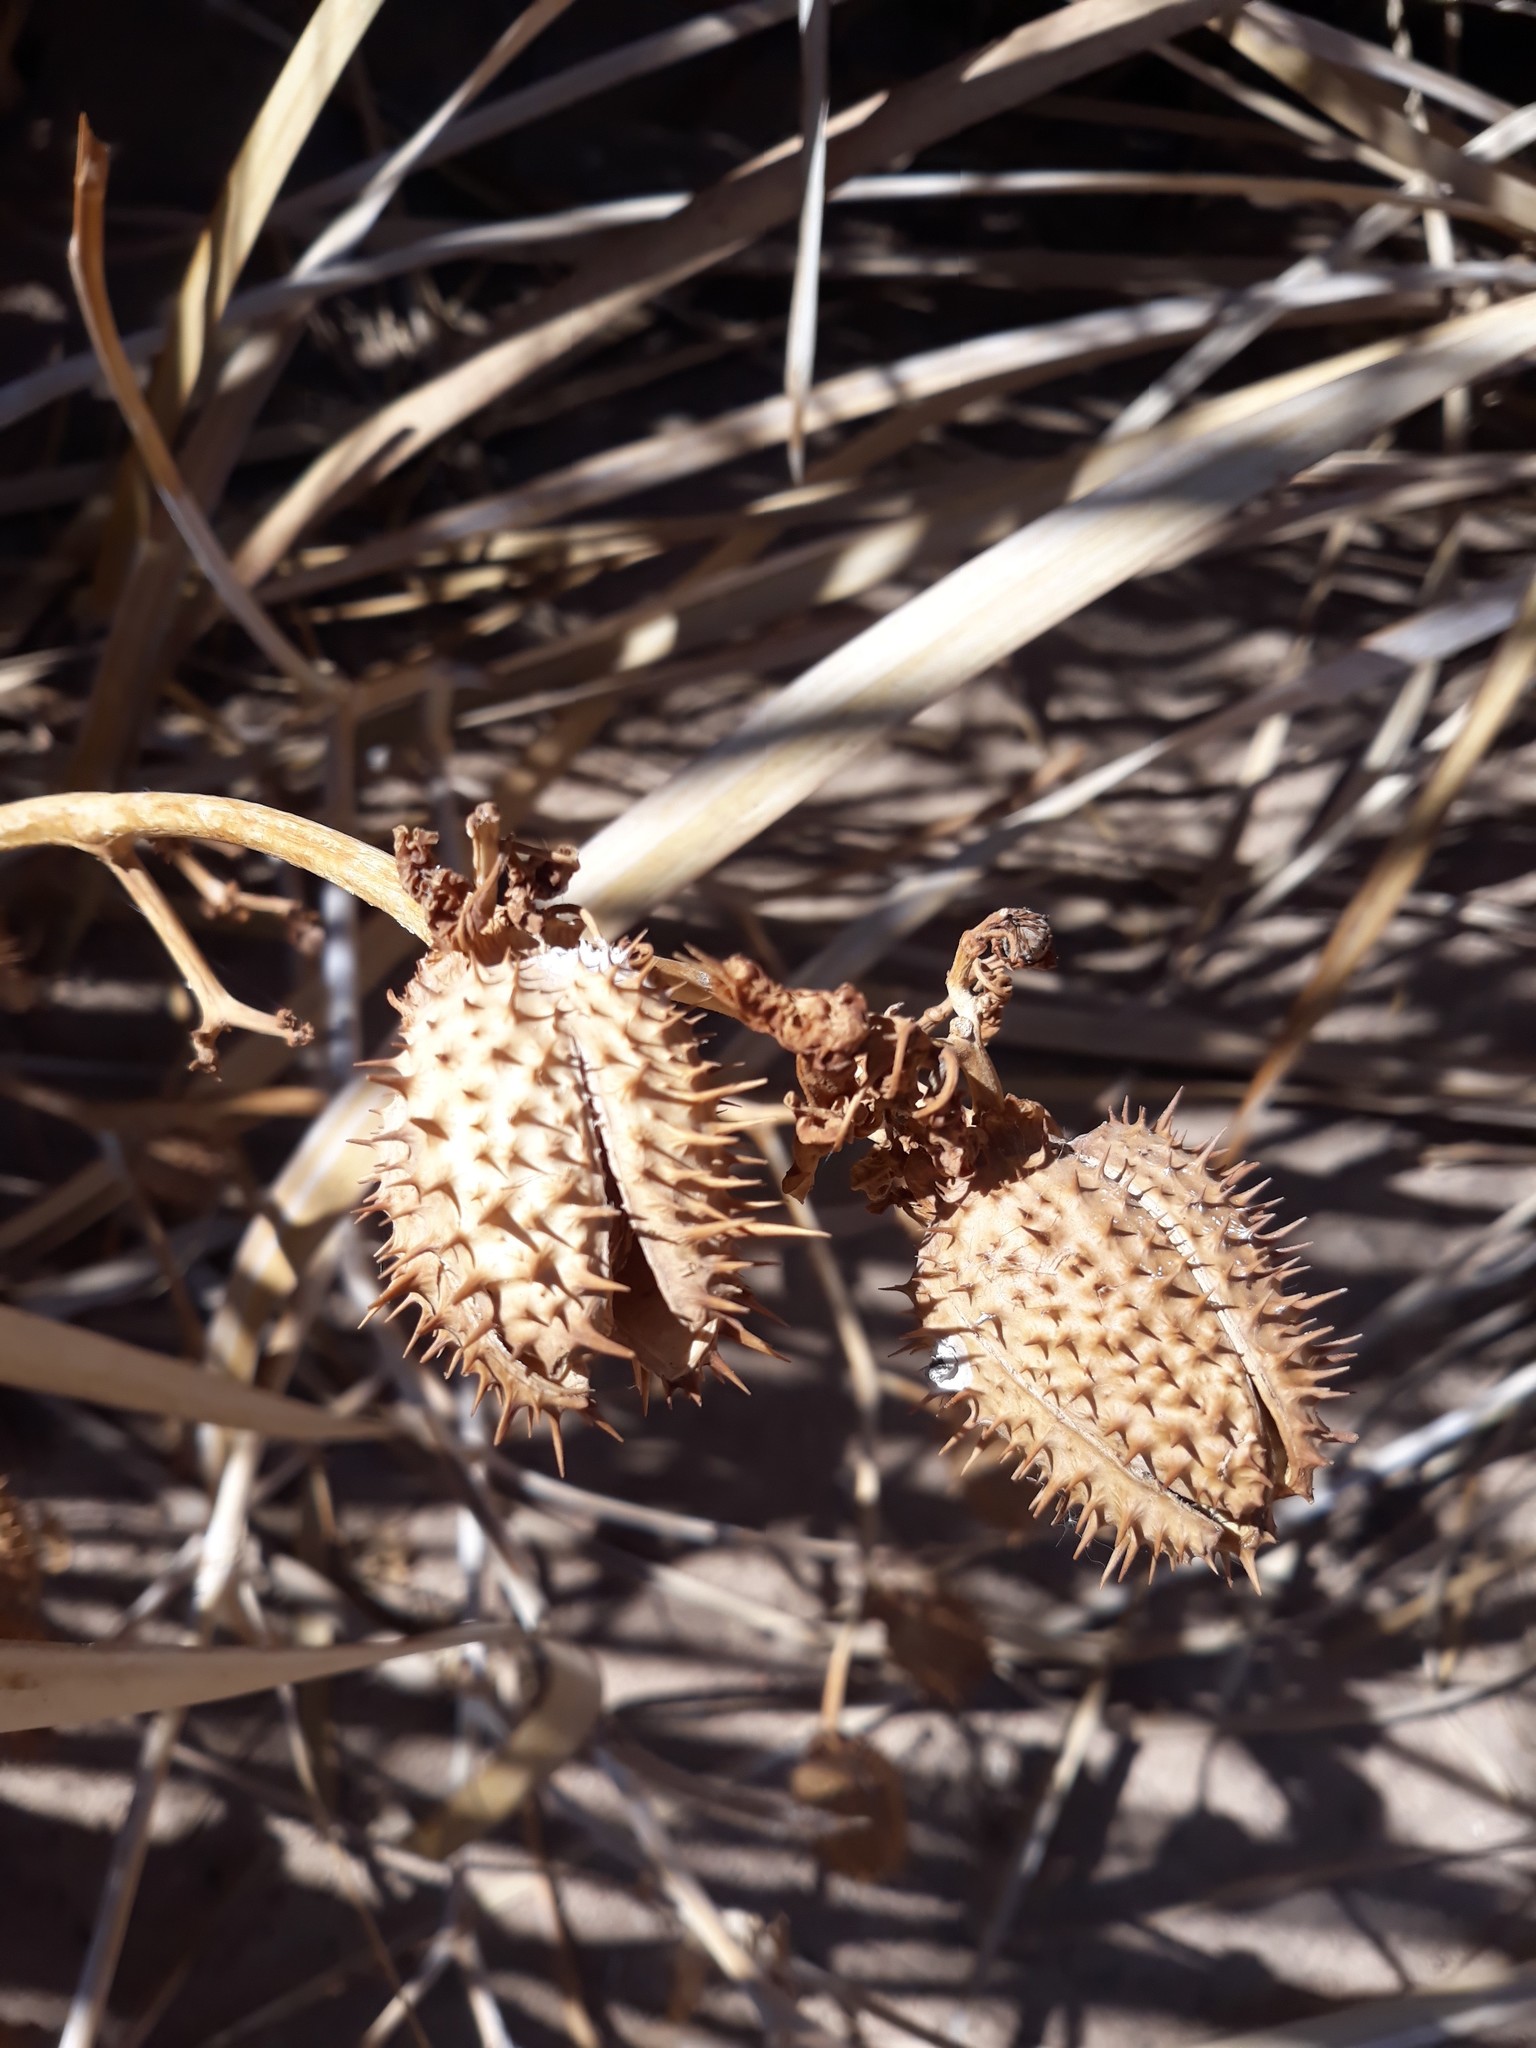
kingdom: Plantae
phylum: Tracheophyta
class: Magnoliopsida
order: Solanales
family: Solanaceae
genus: Datura
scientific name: Datura stramonium
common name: Thorn-apple
